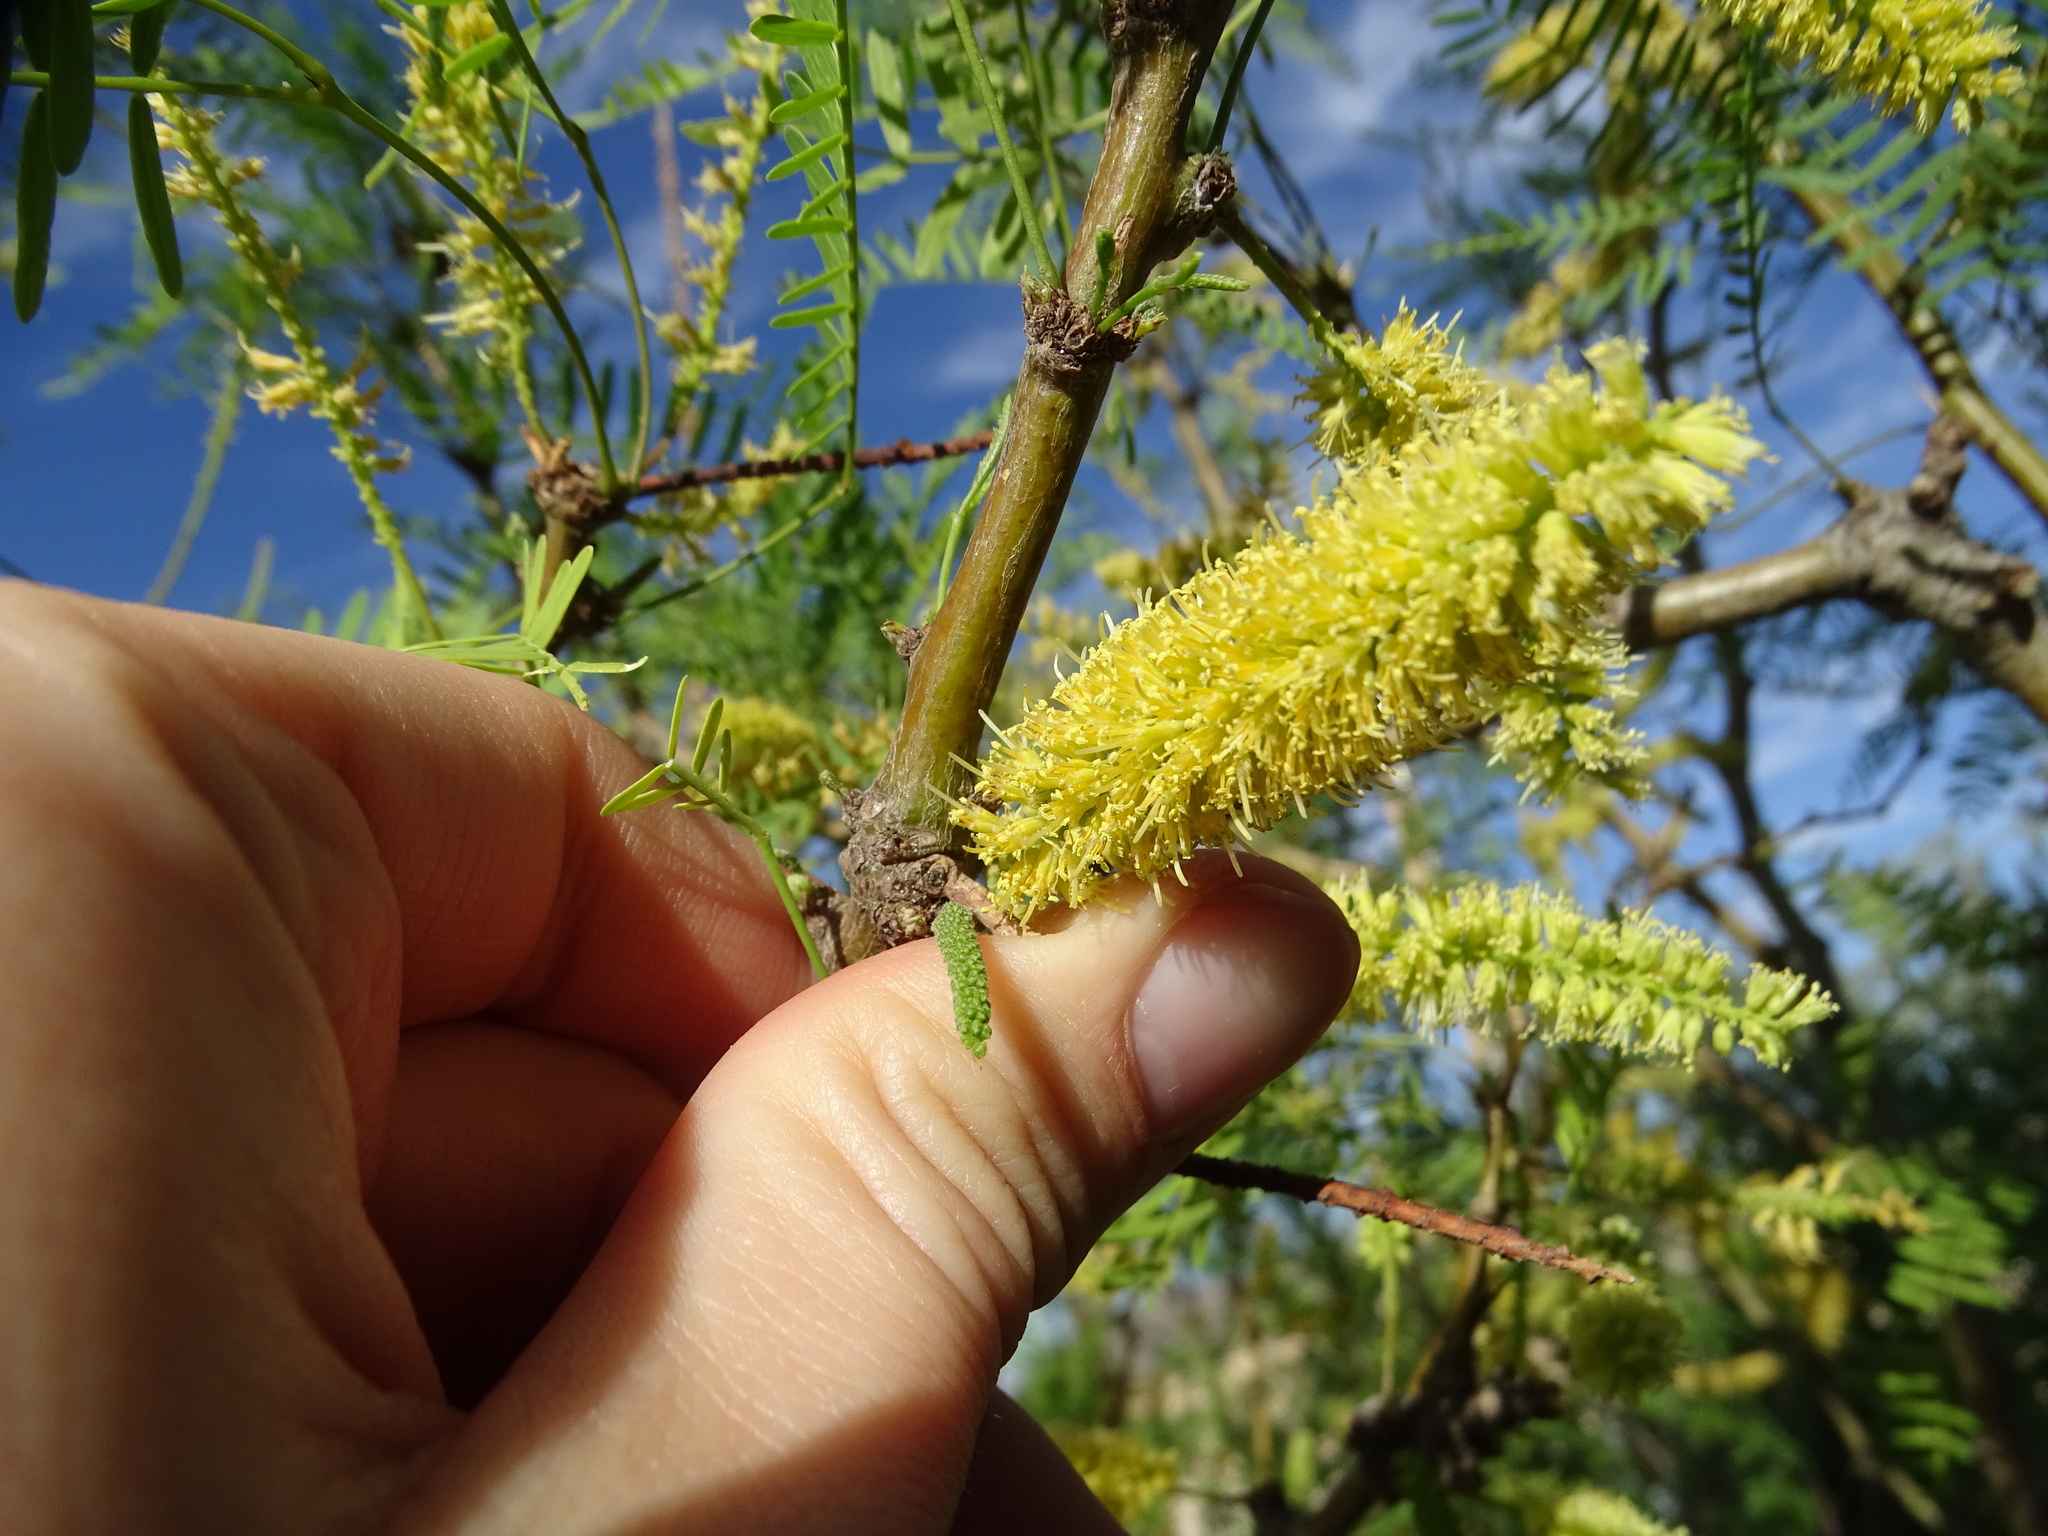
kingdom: Plantae
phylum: Tracheophyta
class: Magnoliopsida
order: Fabales
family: Fabaceae
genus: Prosopis
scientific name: Prosopis glandulosa
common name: Honey mesquite
